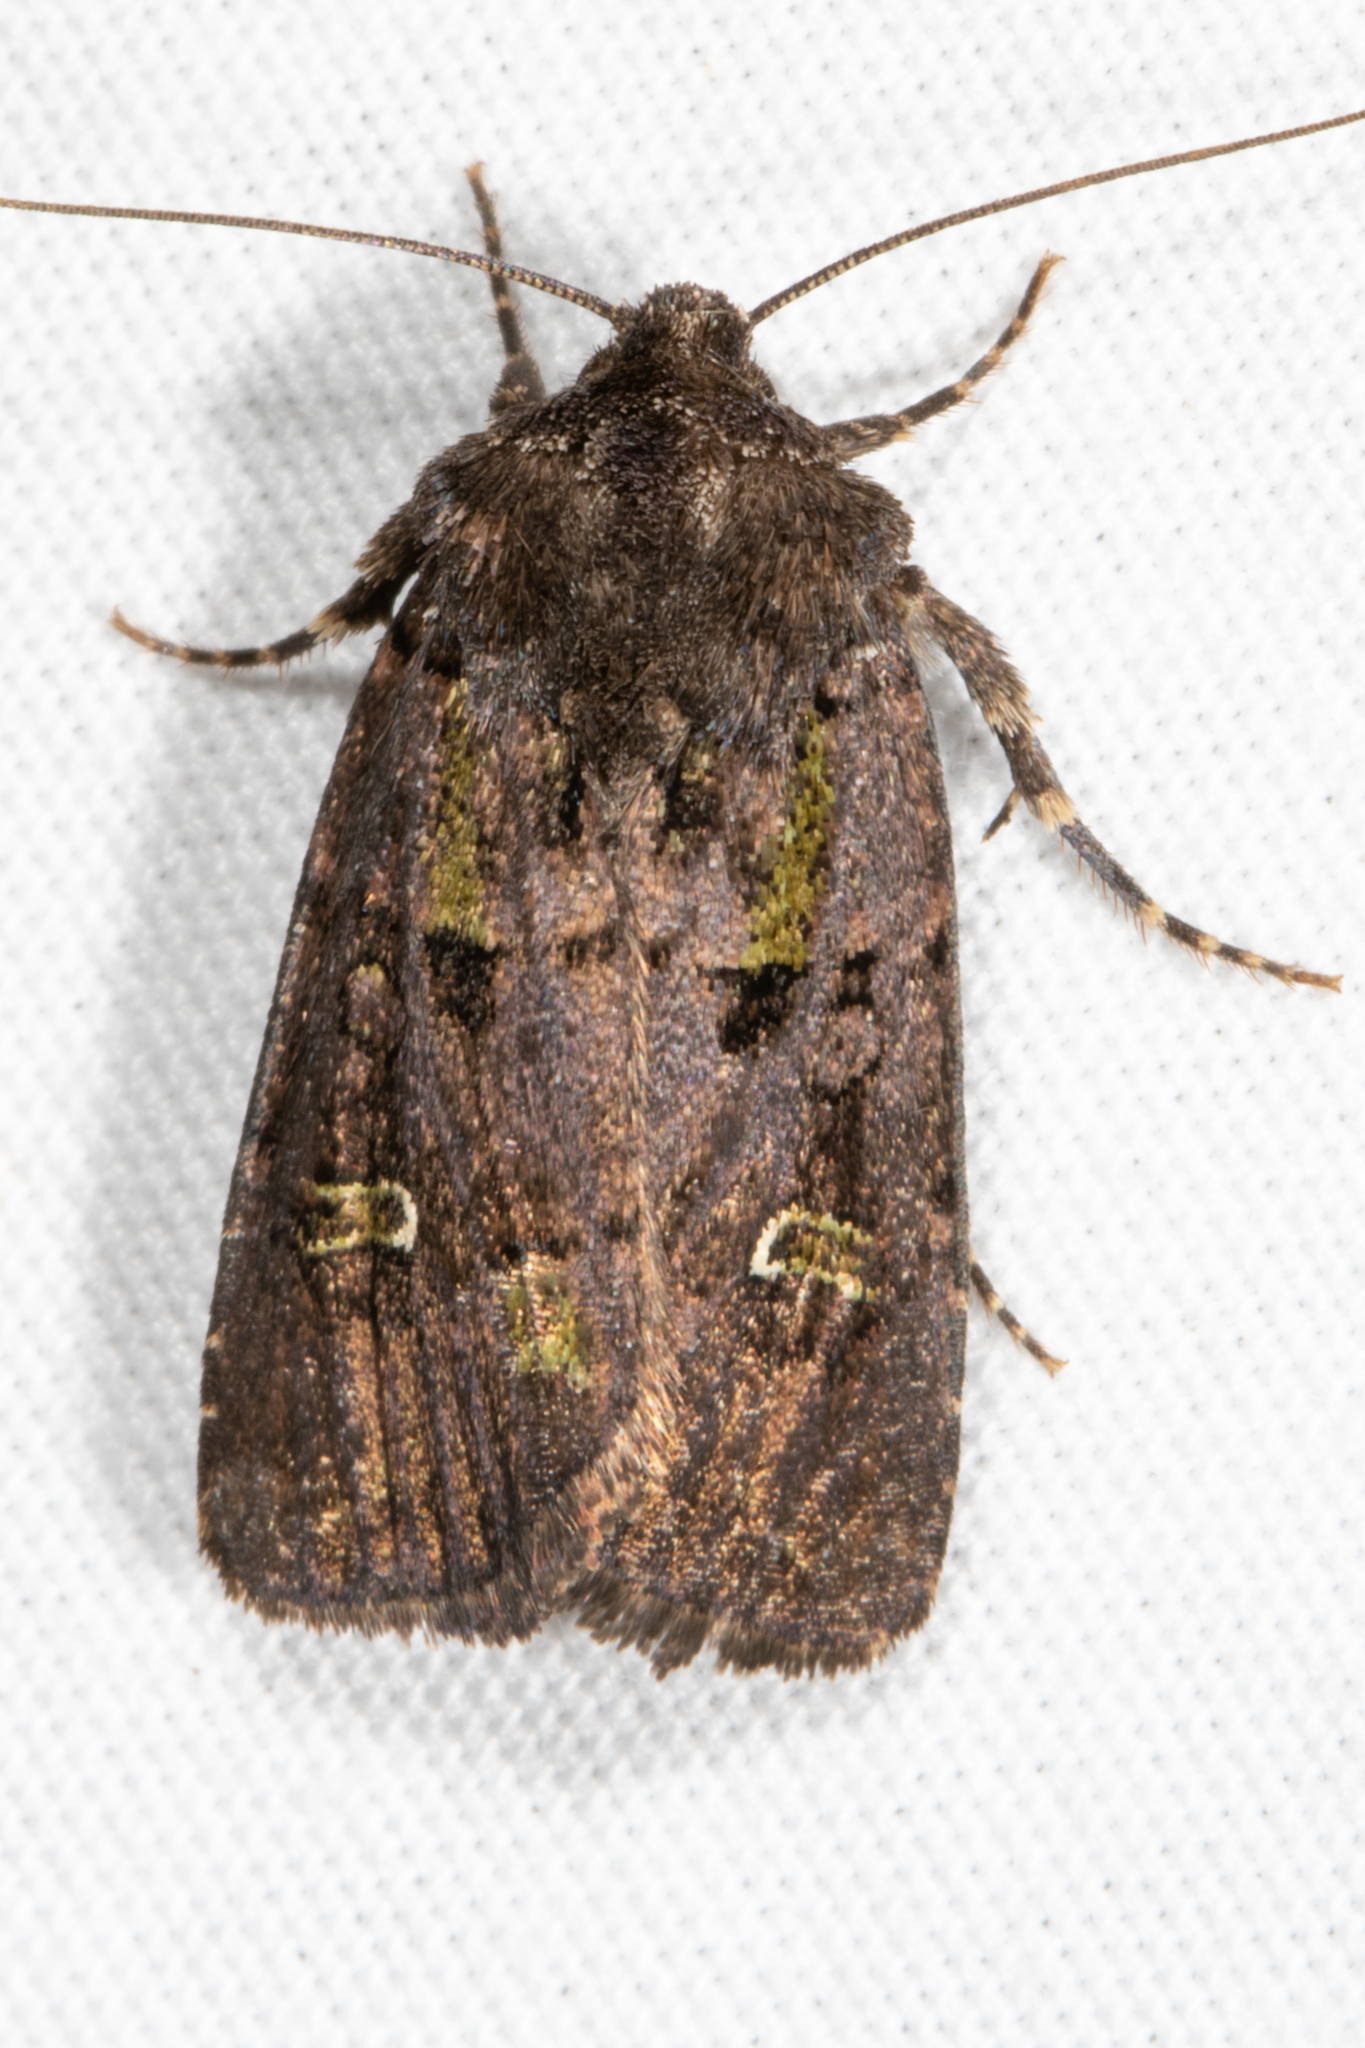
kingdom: Animalia
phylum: Arthropoda
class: Insecta
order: Lepidoptera
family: Noctuidae
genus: Lacinipolia
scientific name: Lacinipolia renigera
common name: Kidney-spotted minor
